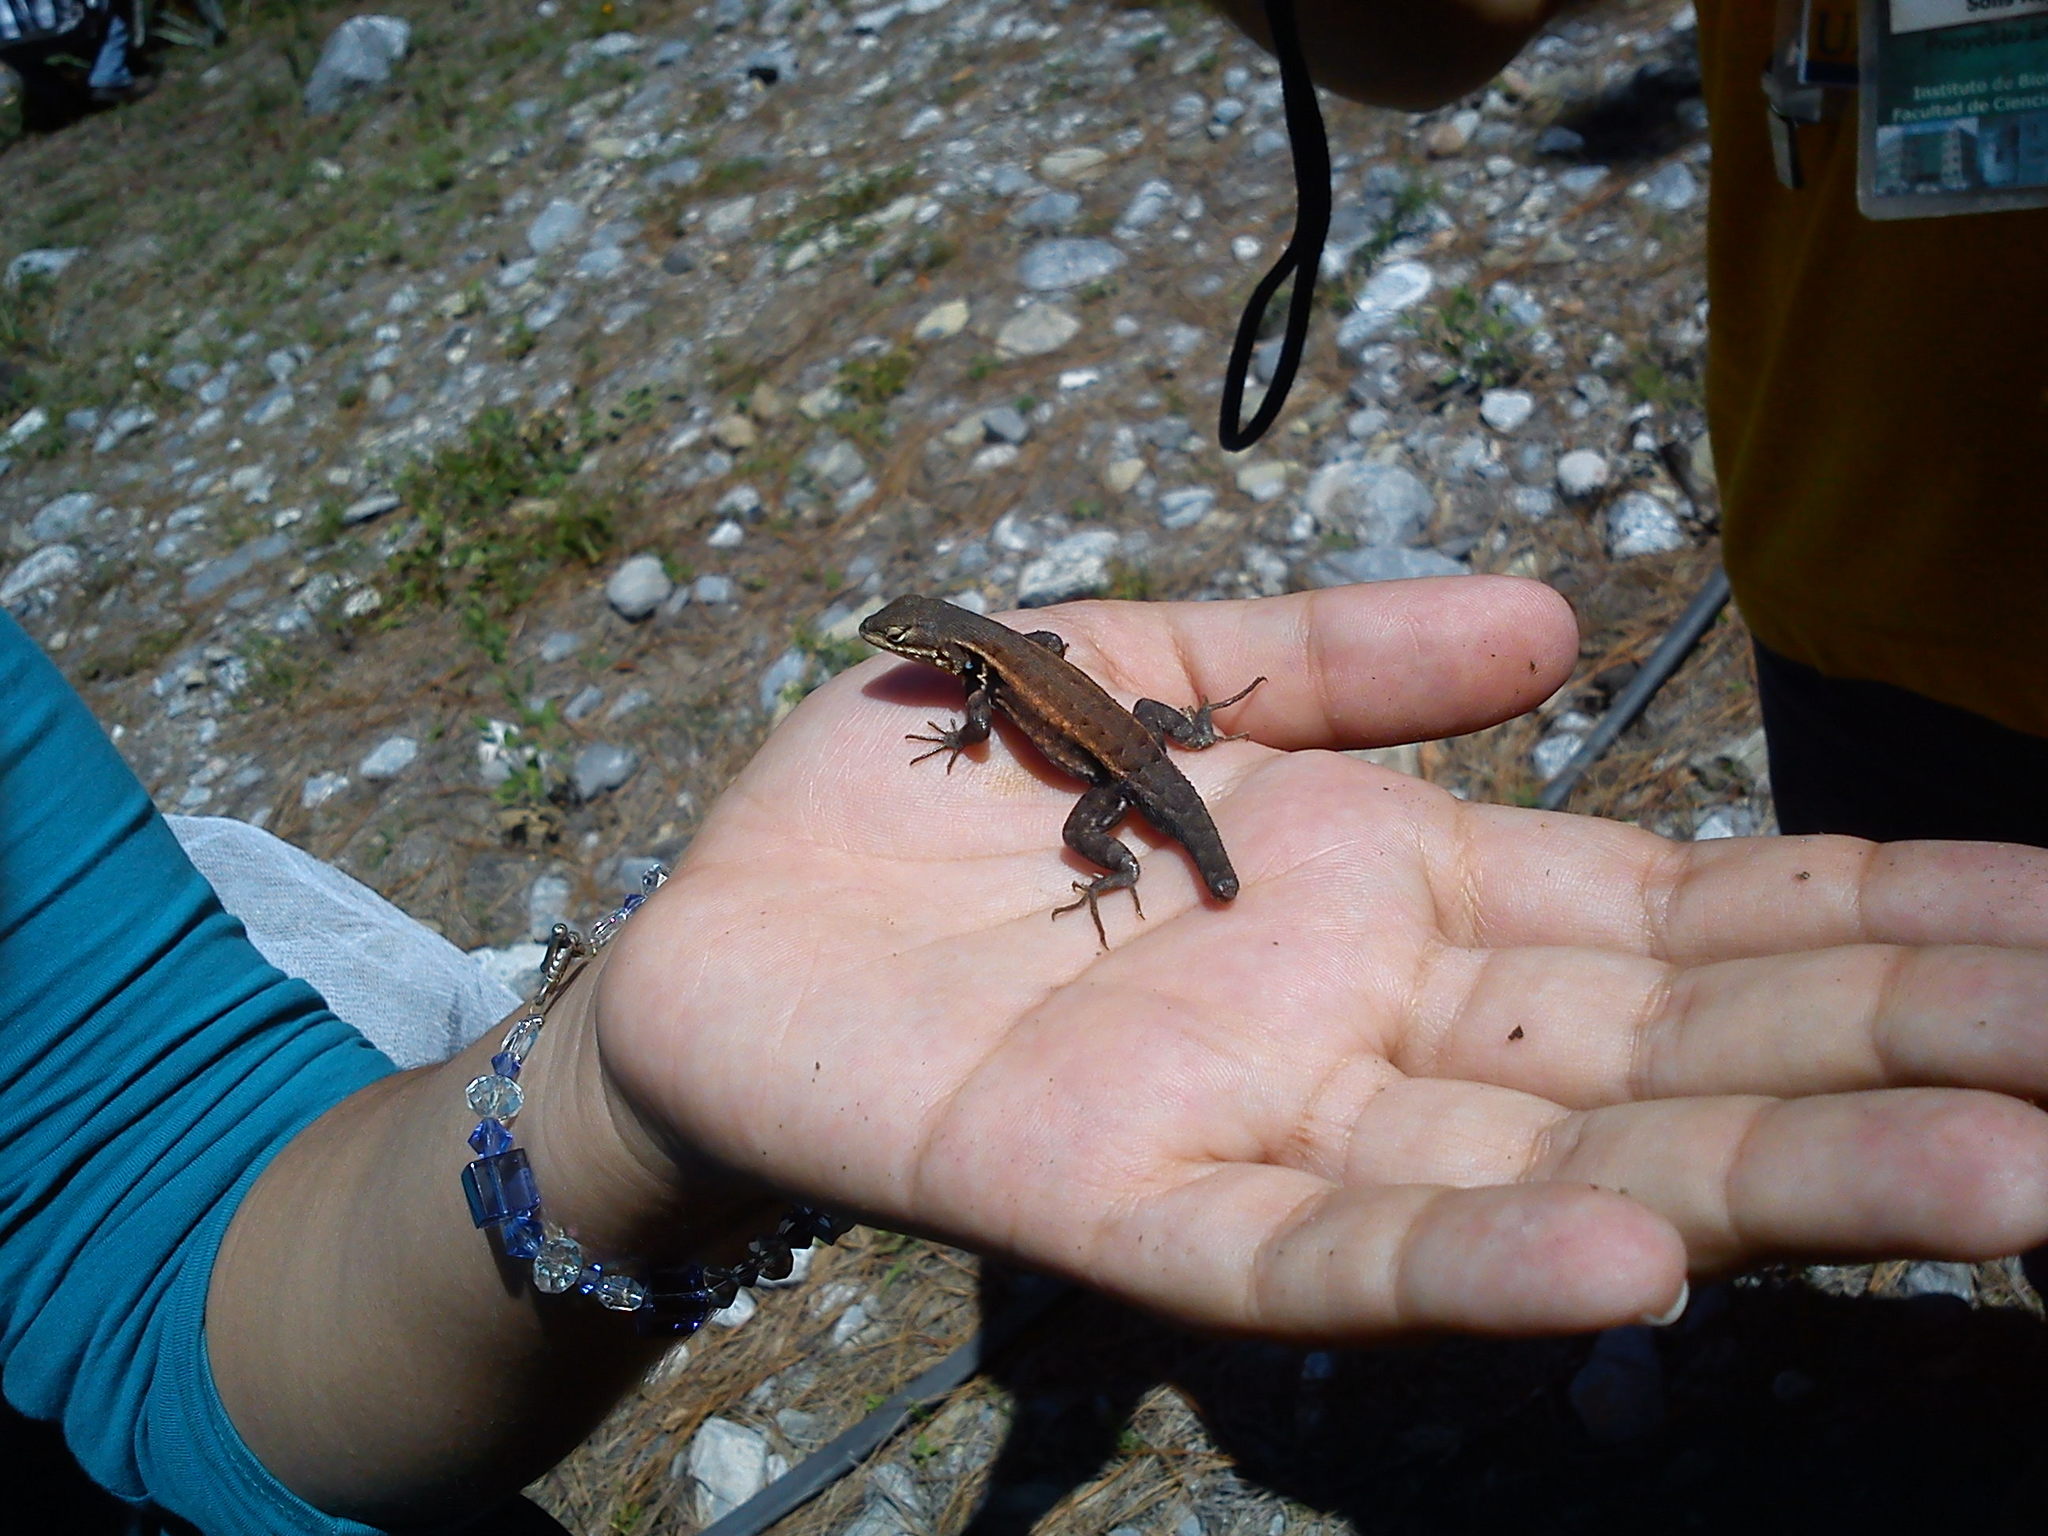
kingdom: Animalia
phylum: Chordata
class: Squamata
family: Phrynosomatidae
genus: Sceloporus
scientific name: Sceloporus parvus
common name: Bluebelly lizard
